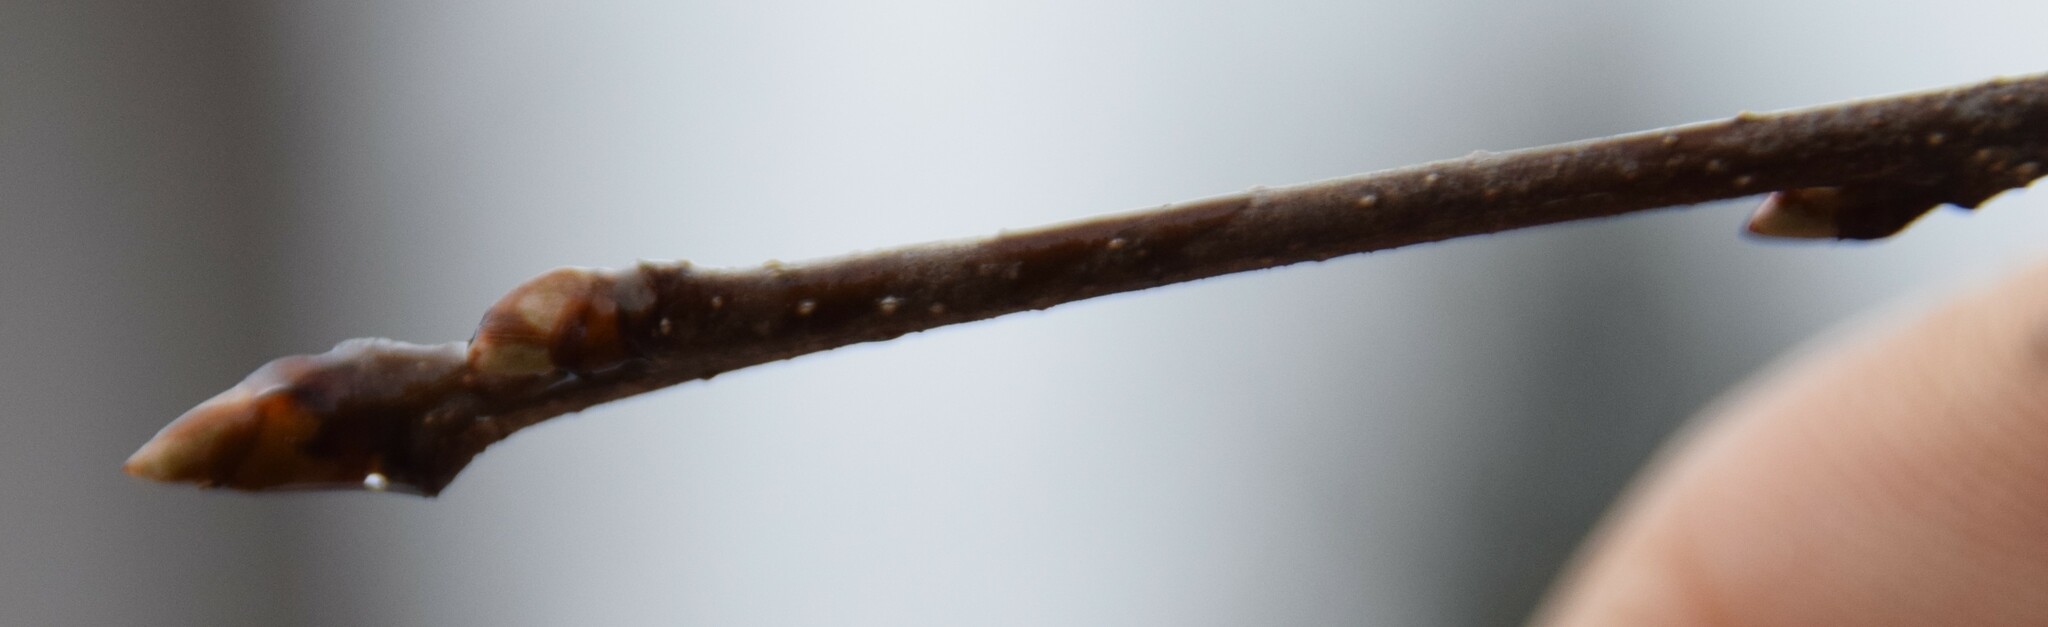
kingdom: Plantae
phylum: Tracheophyta
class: Magnoliopsida
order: Rosales
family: Rosaceae
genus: Prunus
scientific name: Prunus serotina
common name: Black cherry
